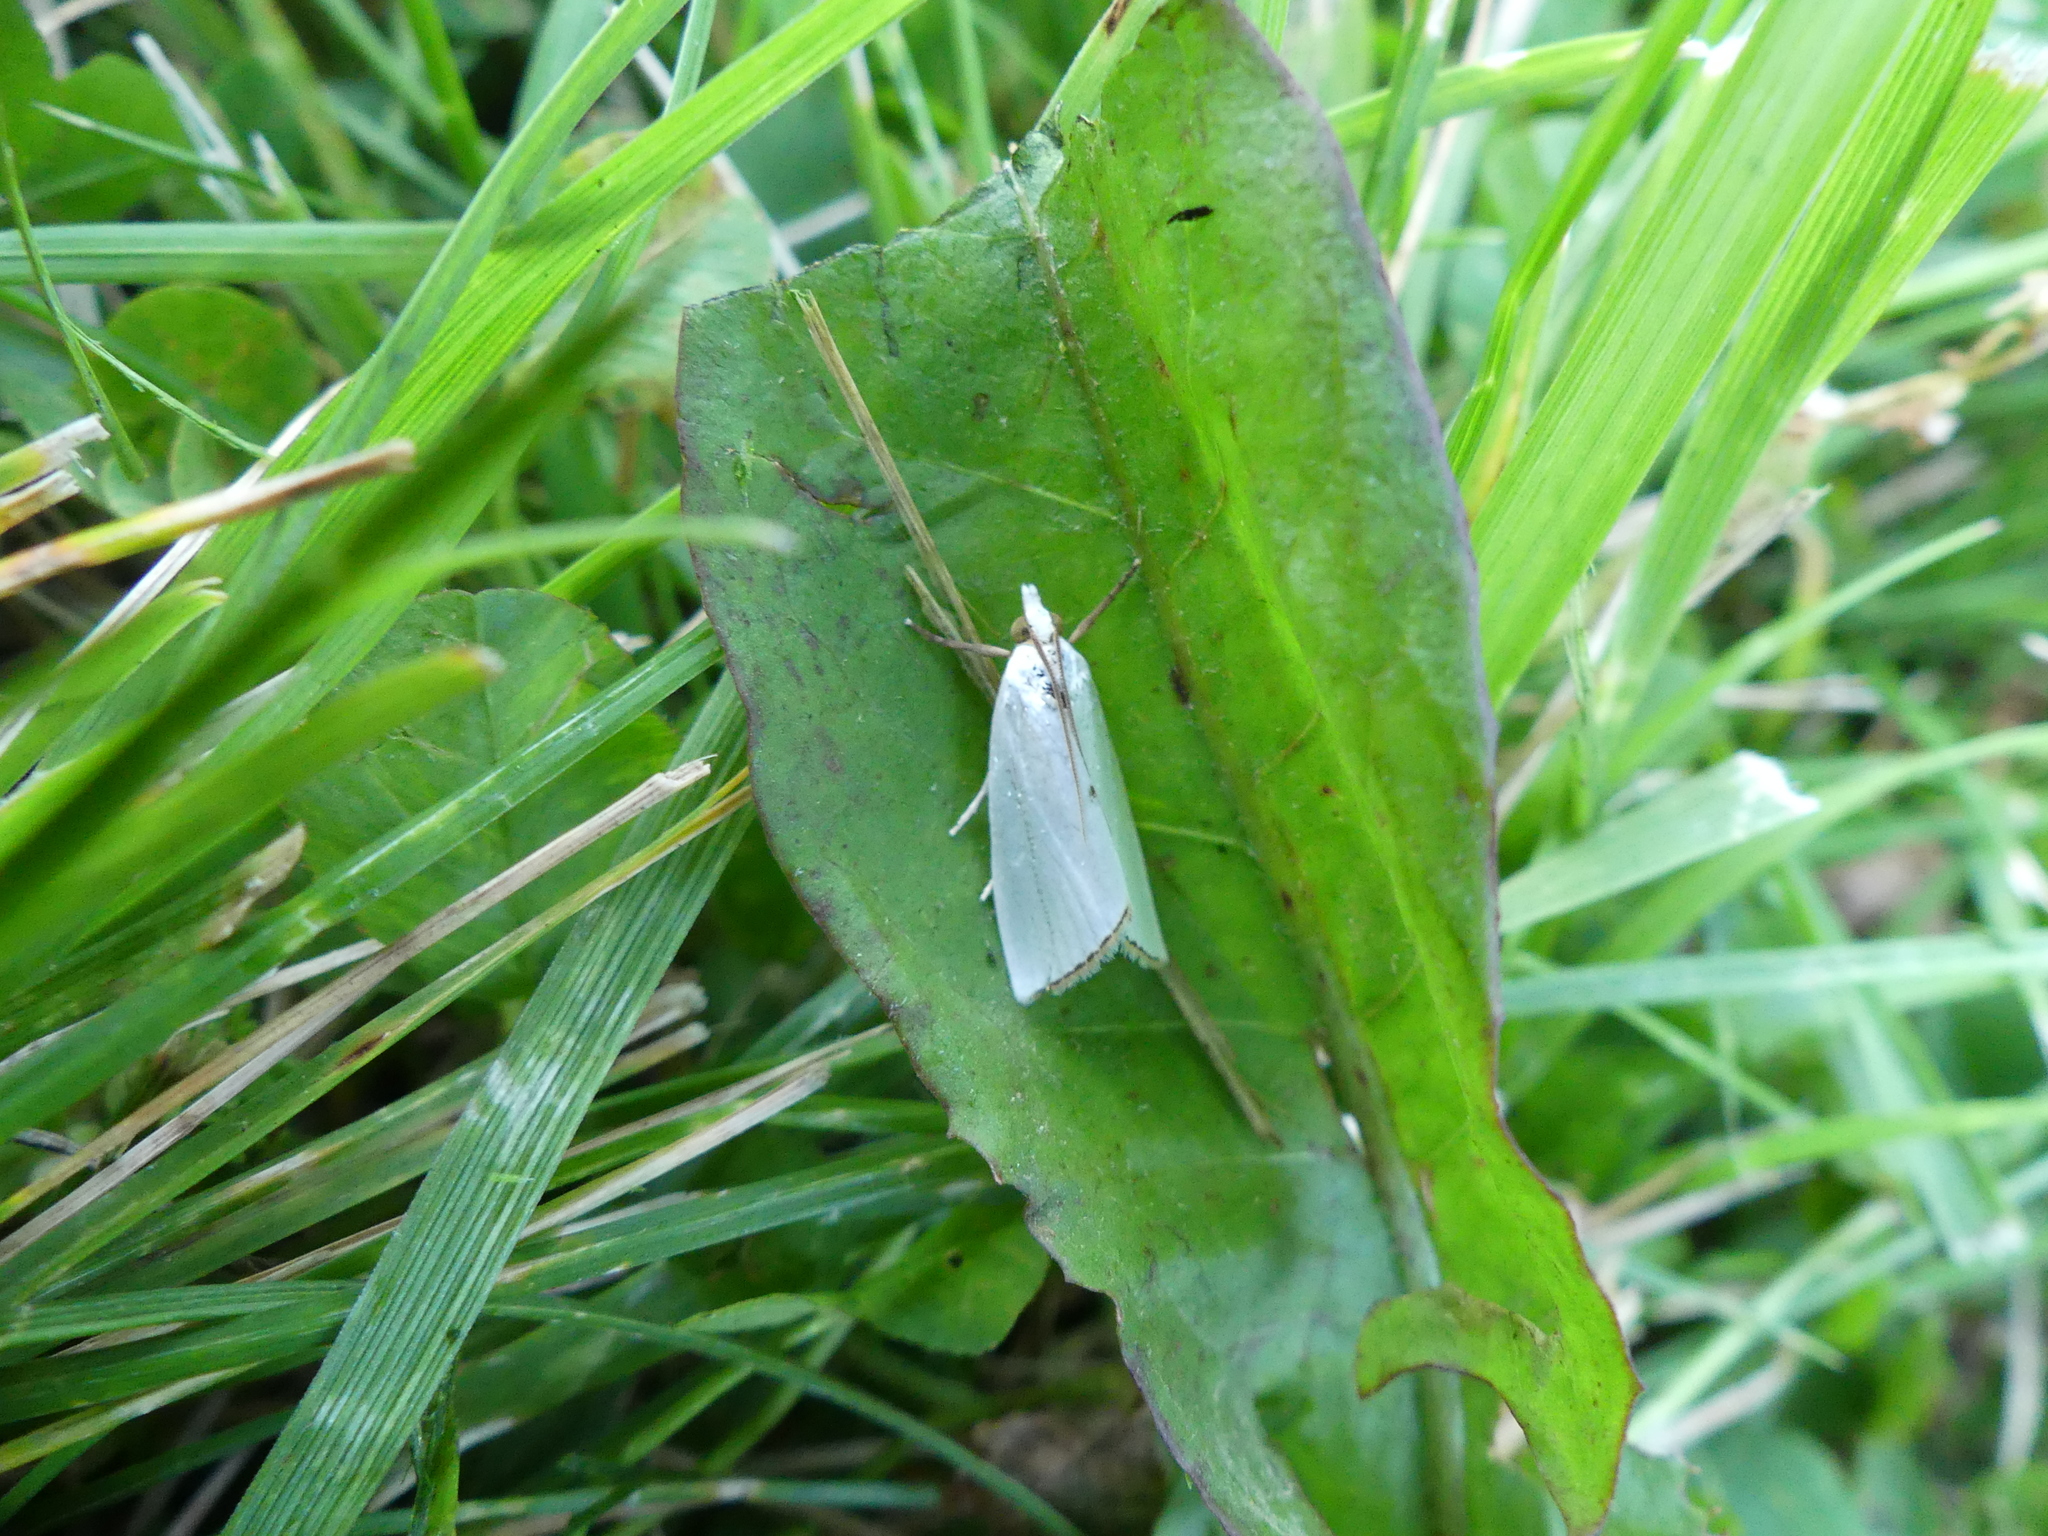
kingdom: Animalia
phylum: Arthropoda
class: Insecta
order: Lepidoptera
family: Crambidae
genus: Argyria
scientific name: Argyria nivalis
